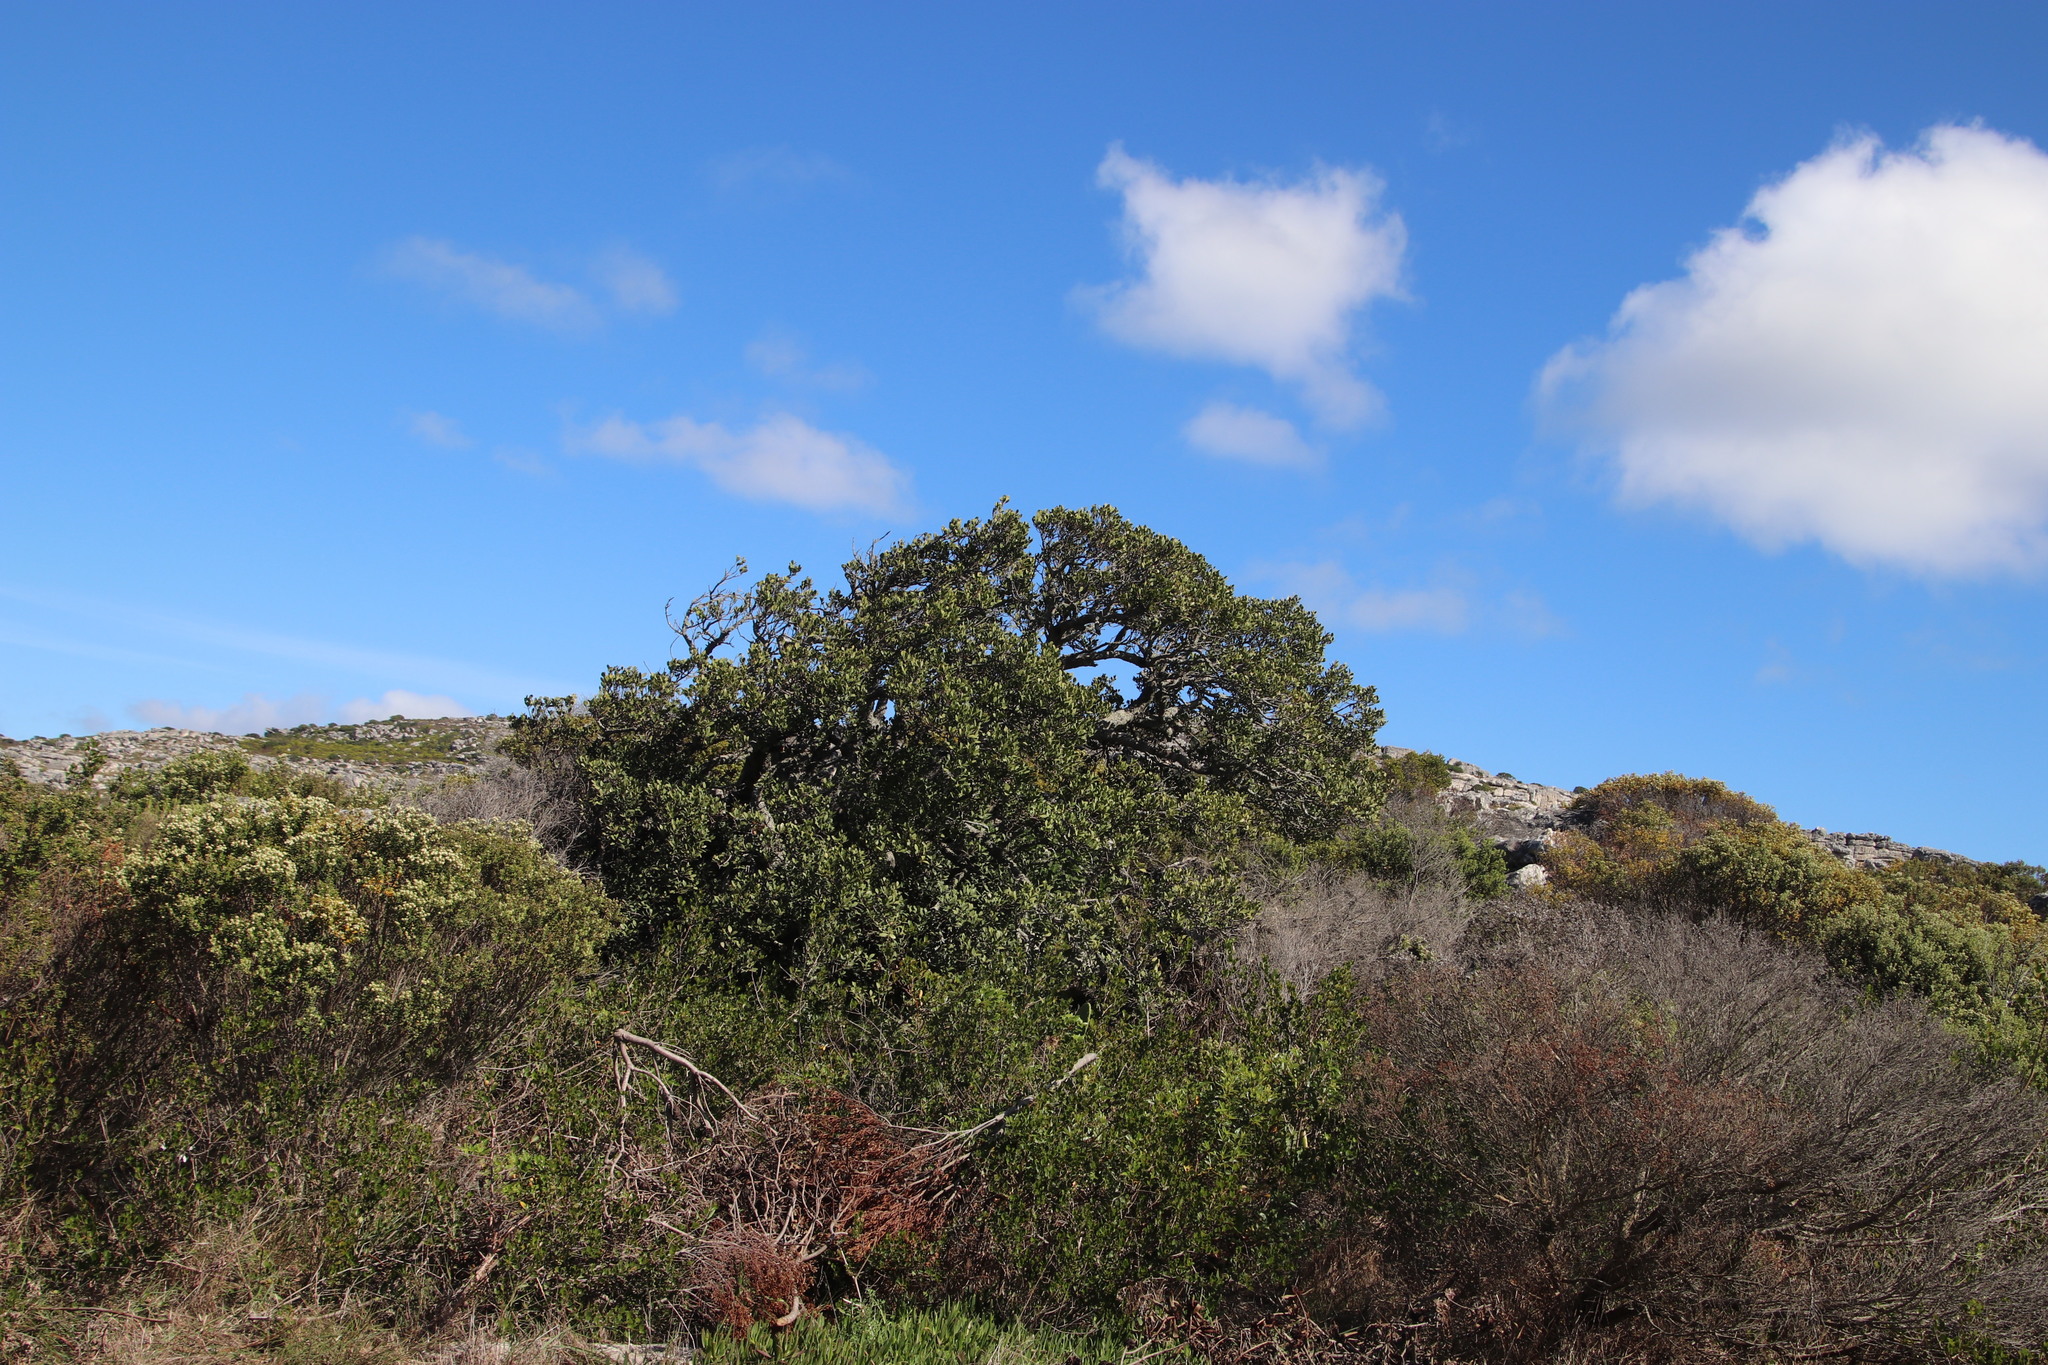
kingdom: Plantae
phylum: Tracheophyta
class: Magnoliopsida
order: Celastrales
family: Celastraceae
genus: Gymnosporia
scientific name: Gymnosporia laurina
